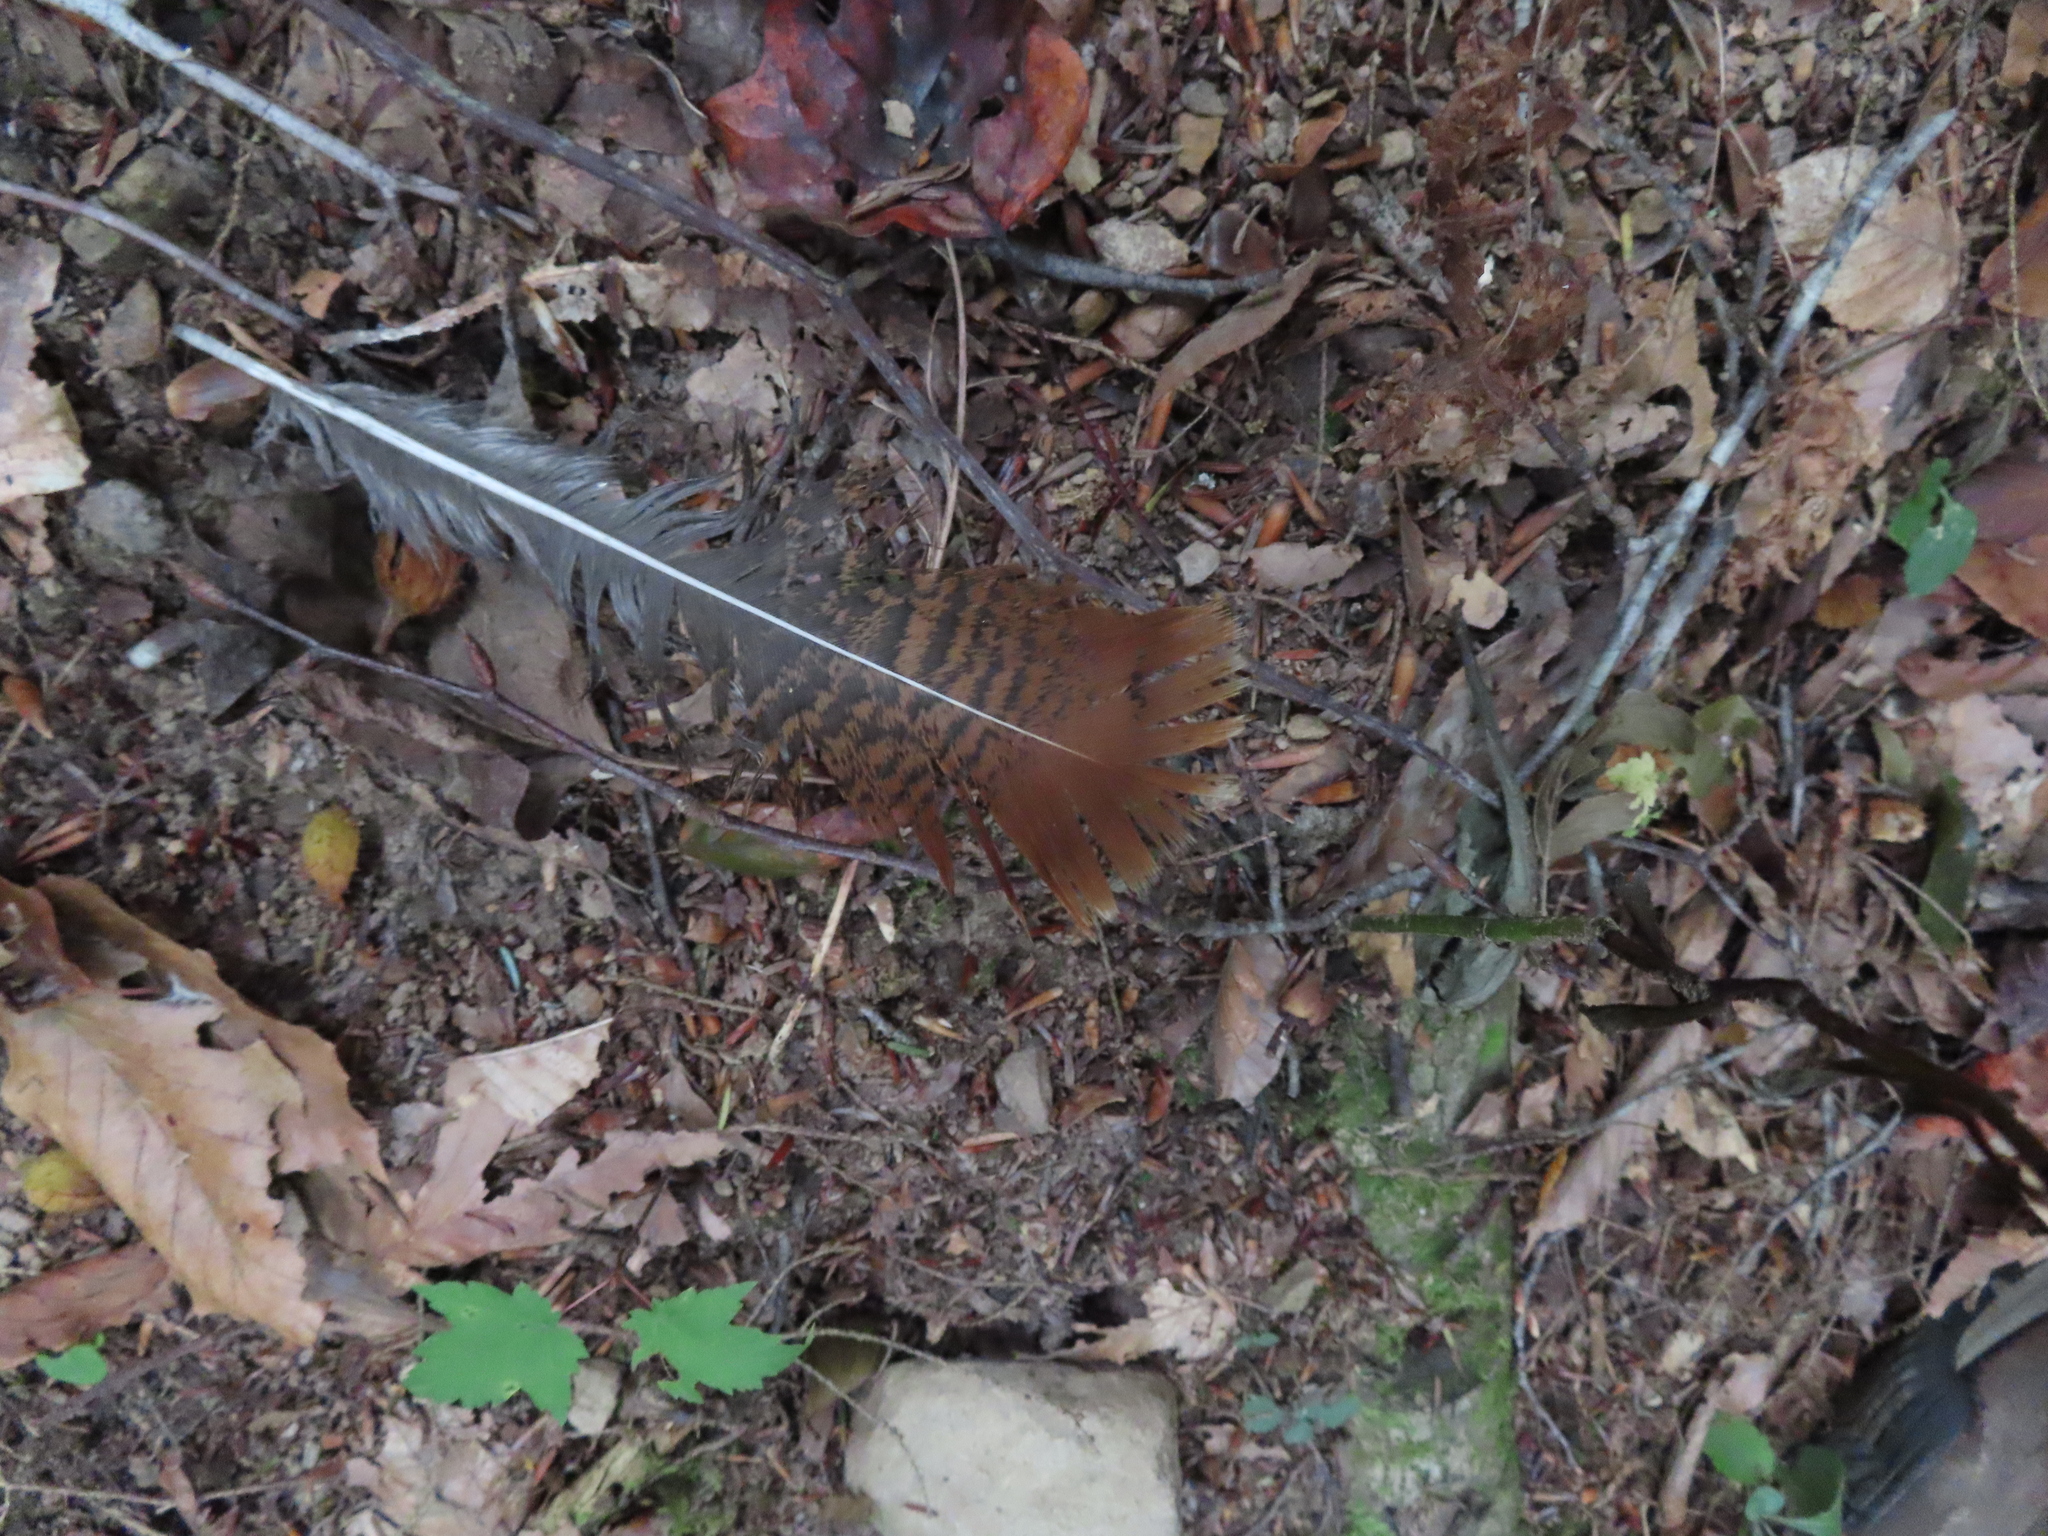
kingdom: Animalia
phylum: Chordata
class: Aves
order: Galliformes
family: Phasianidae
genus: Meleagris
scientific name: Meleagris gallopavo
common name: Wild turkey
